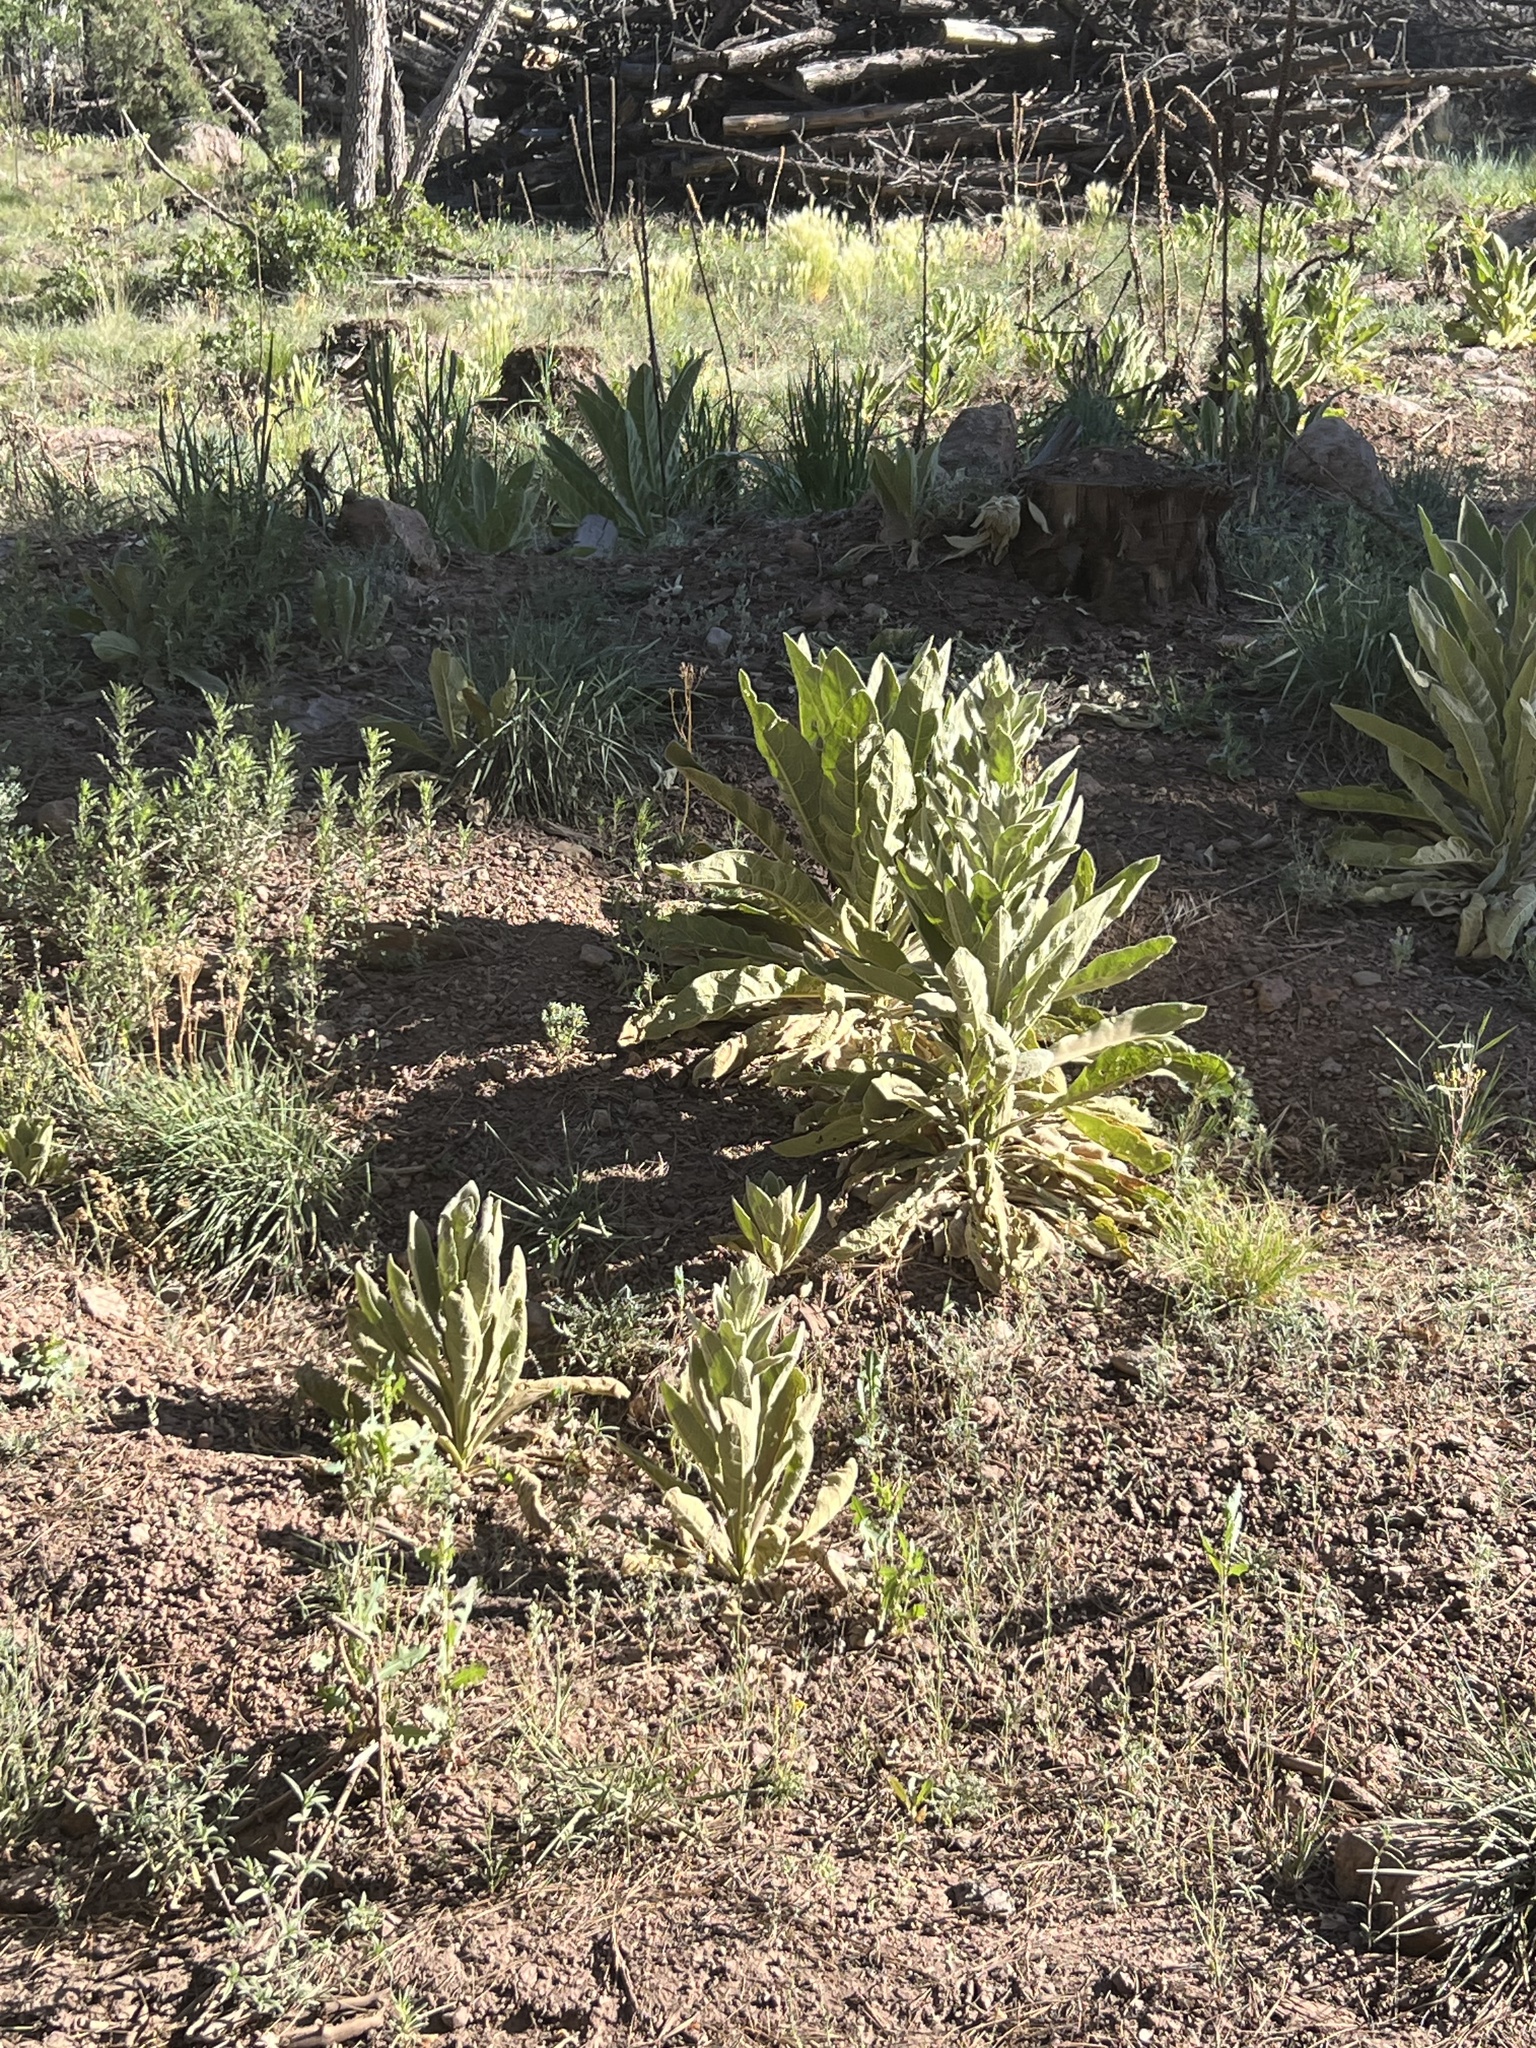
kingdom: Plantae
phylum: Tracheophyta
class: Magnoliopsida
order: Lamiales
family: Scrophulariaceae
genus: Verbascum
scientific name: Verbascum thapsus
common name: Common mullein
